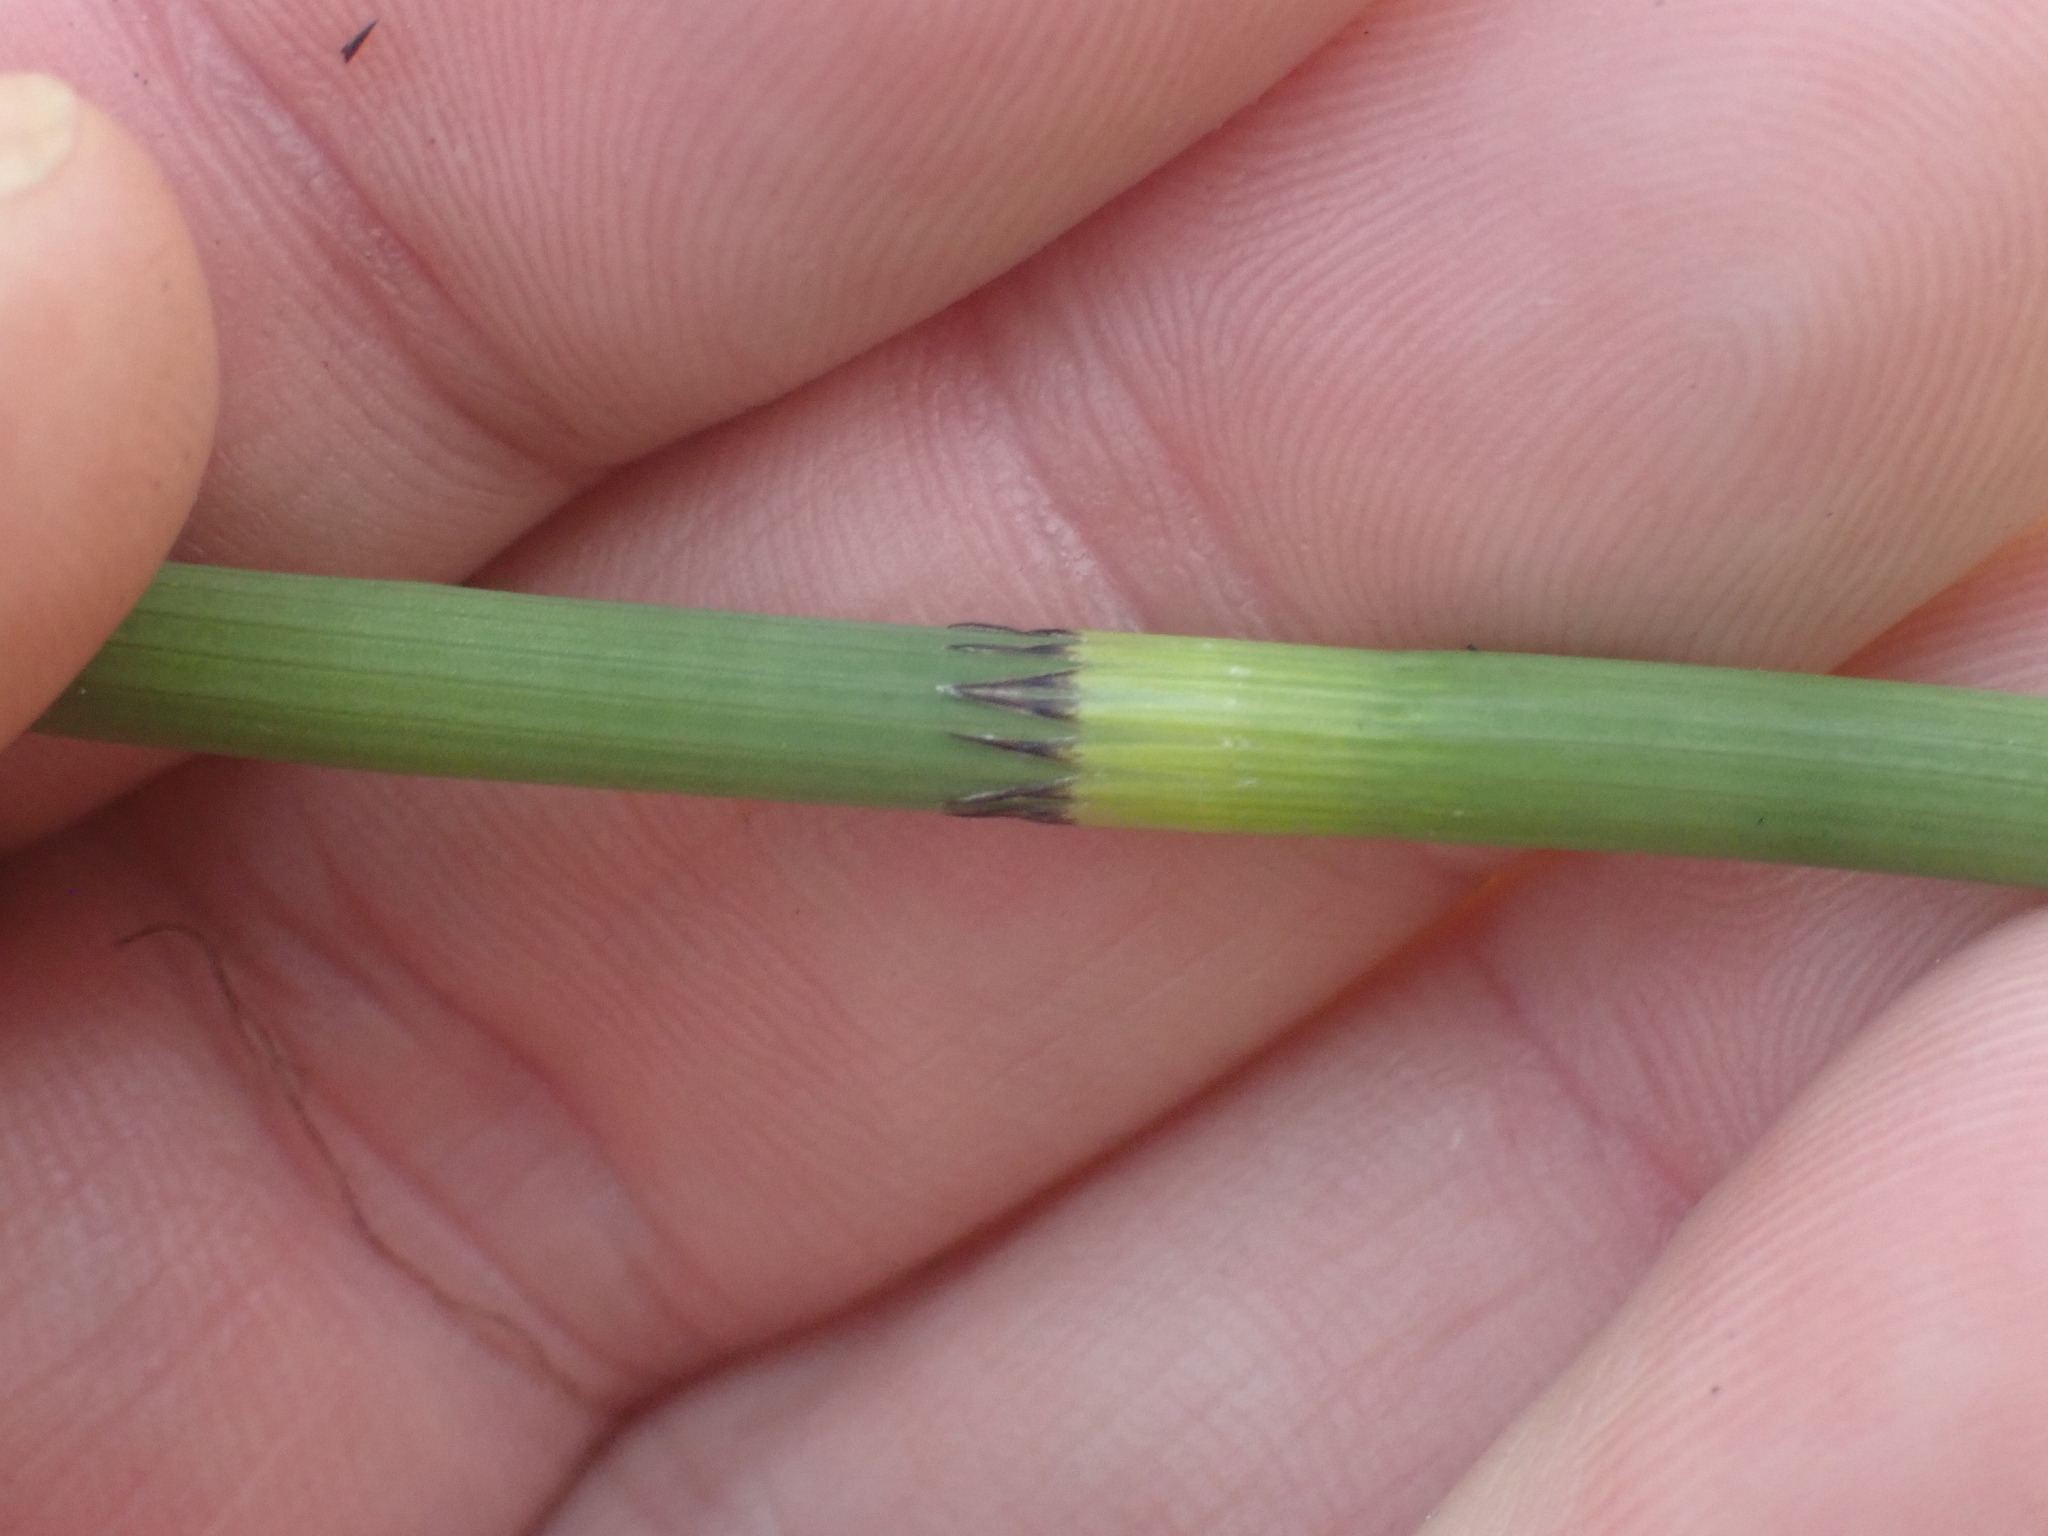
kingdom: Plantae
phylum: Tracheophyta
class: Polypodiopsida
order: Equisetales
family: Equisetaceae
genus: Equisetum
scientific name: Equisetum fluviatile
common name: Water horsetail
